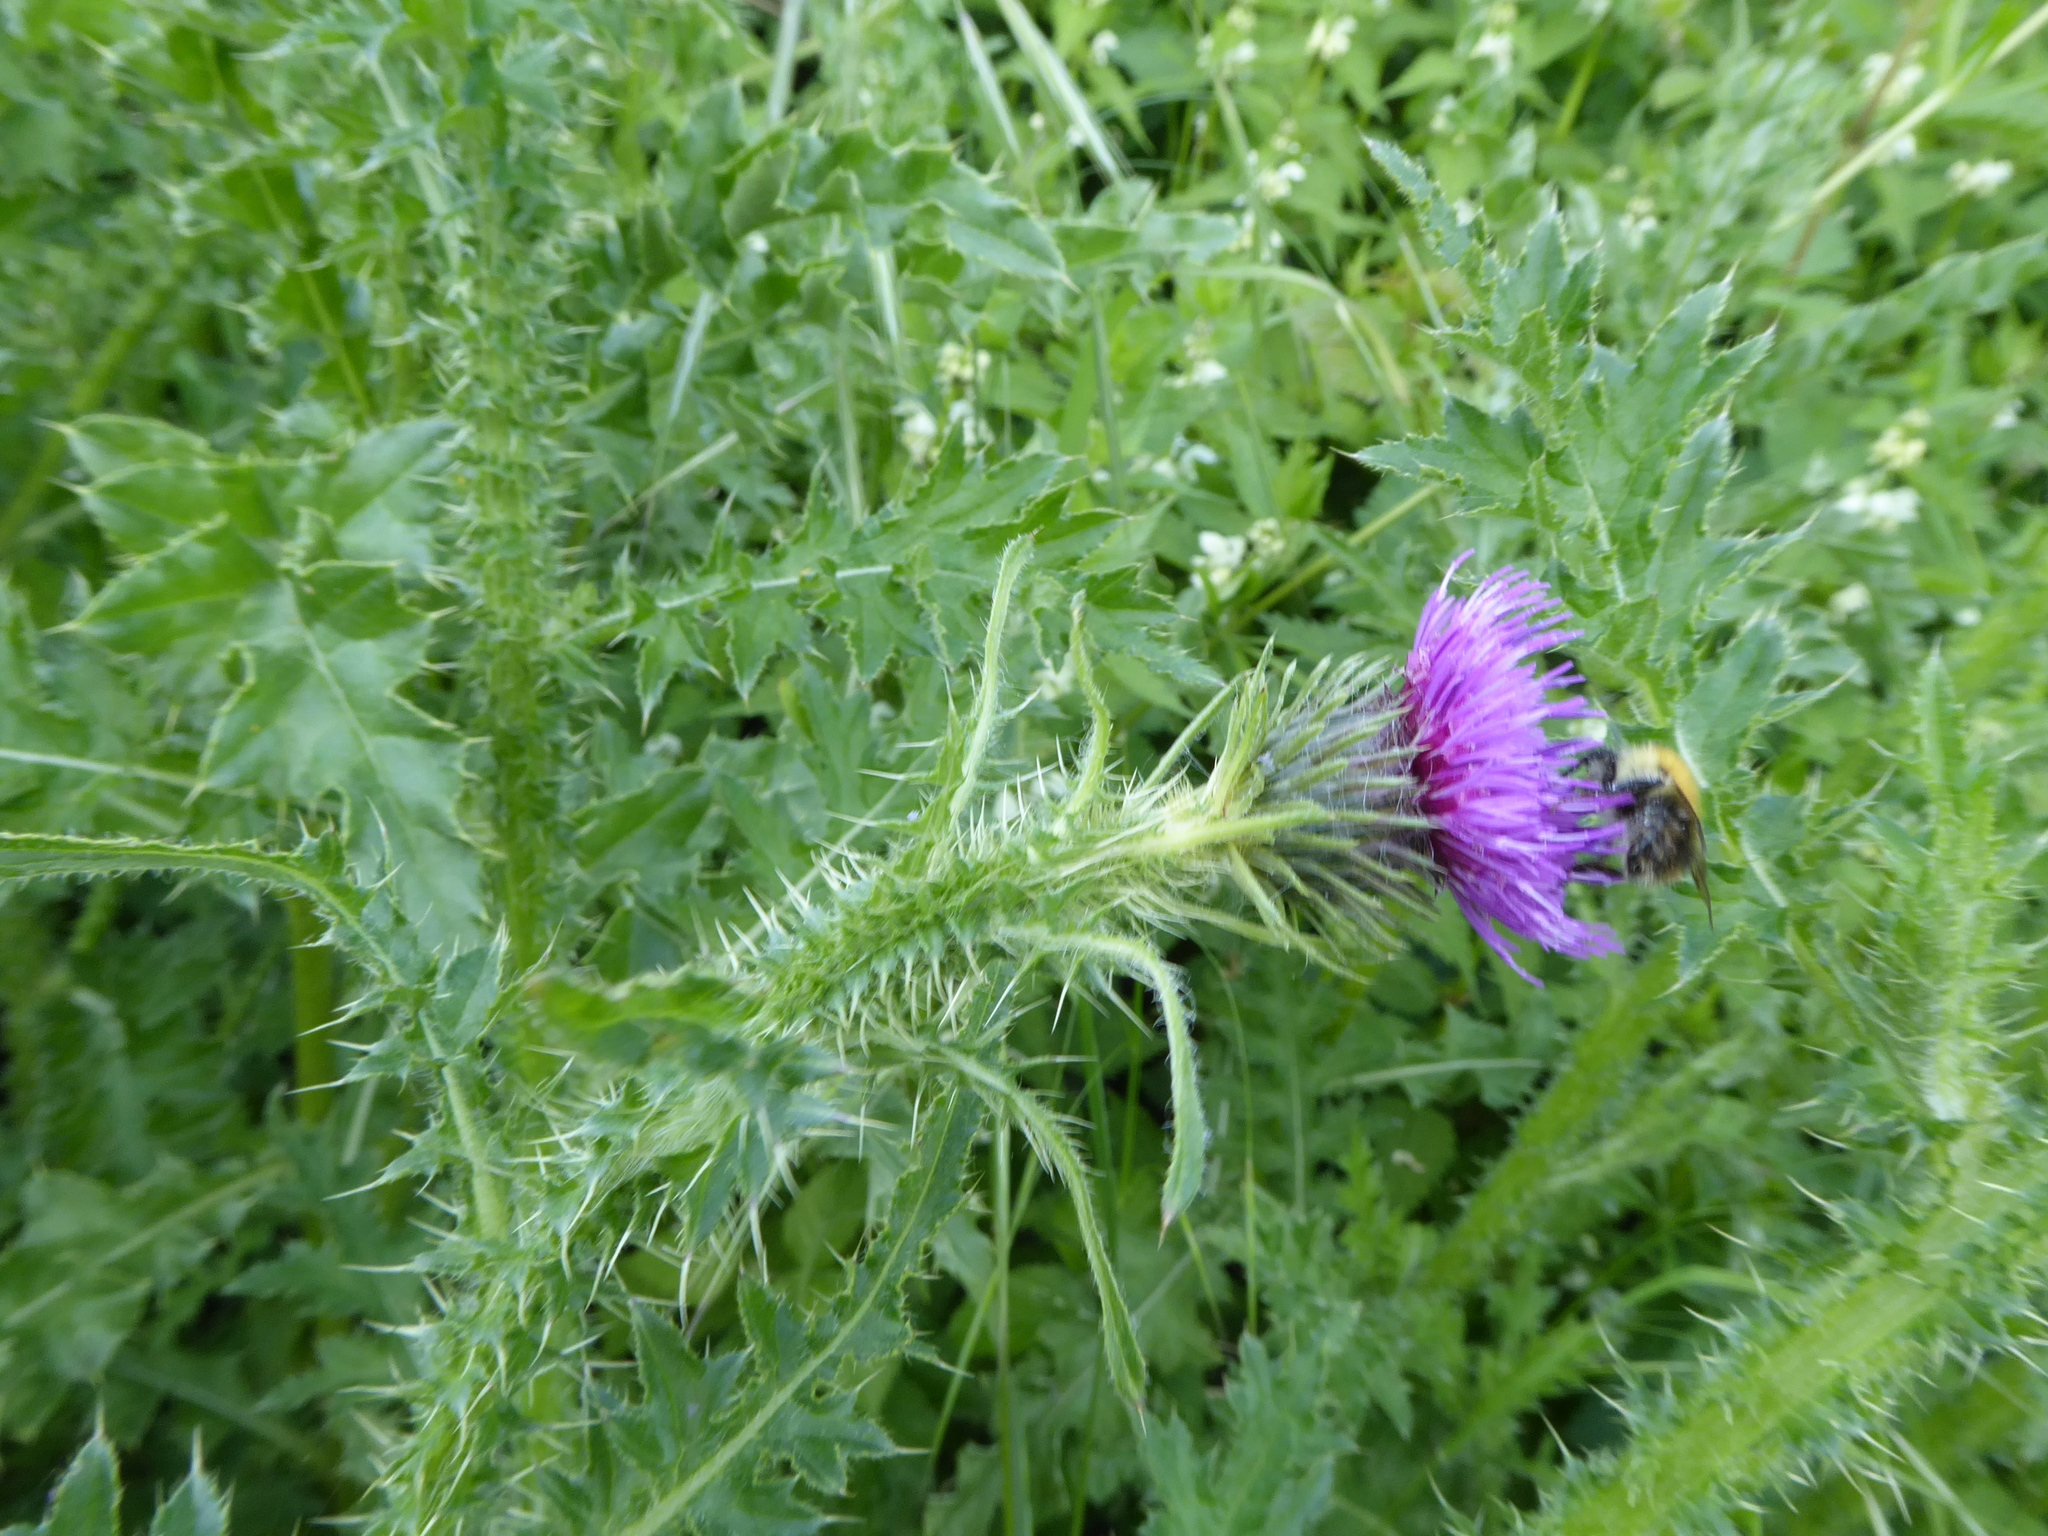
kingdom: Plantae
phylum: Tracheophyta
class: Magnoliopsida
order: Asterales
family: Asteraceae
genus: Carduus
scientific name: Carduus leptocephalus
